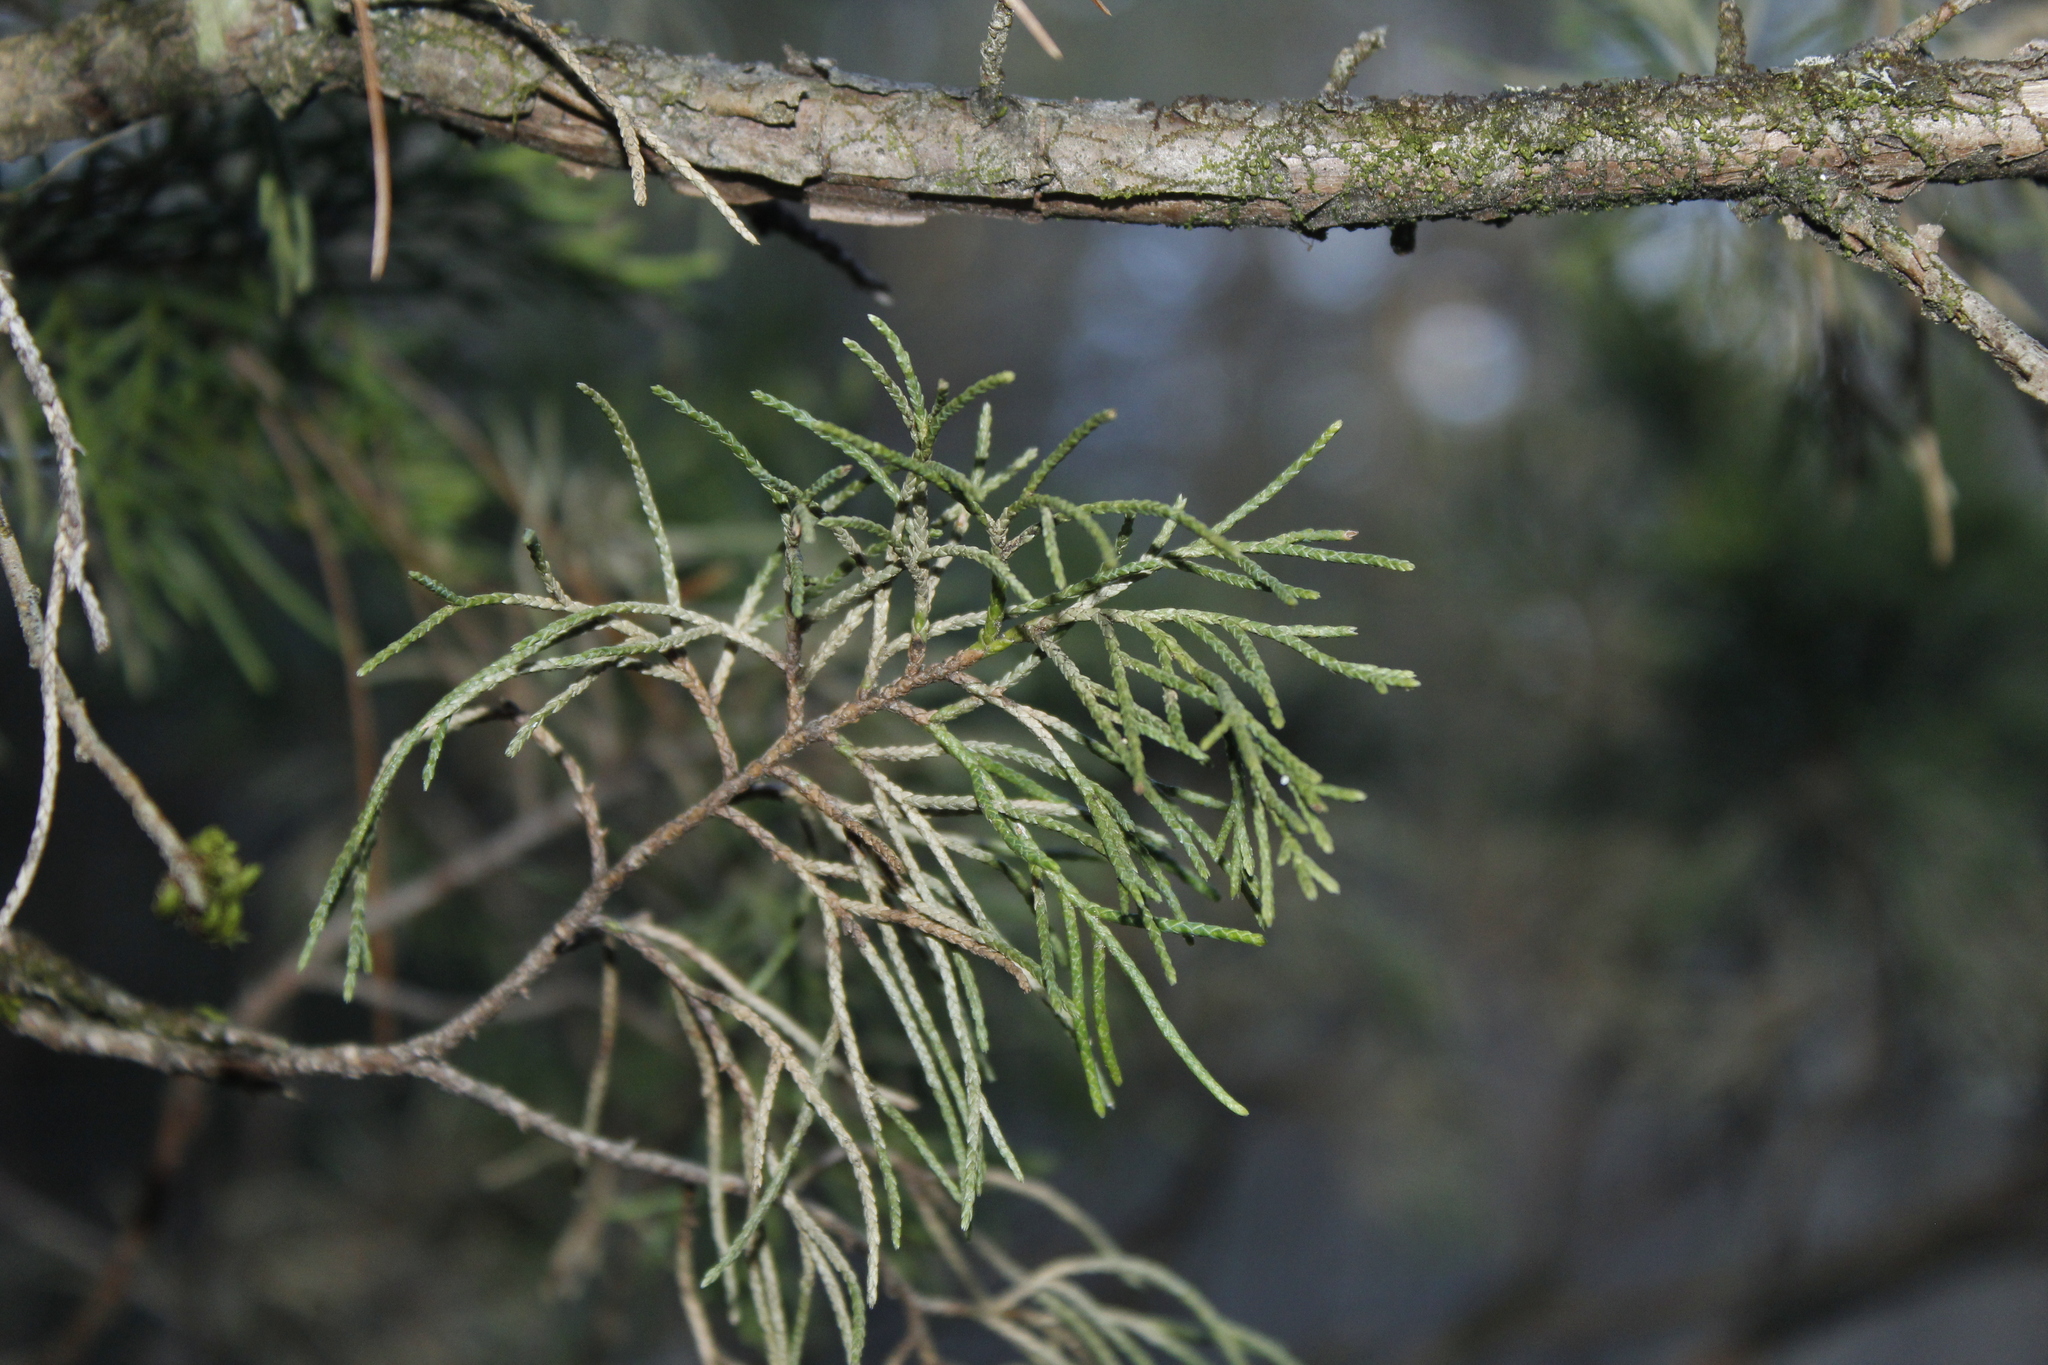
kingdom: Plantae
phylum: Tracheophyta
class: Pinopsida
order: Pinales
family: Cupressaceae
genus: Juniperus
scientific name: Juniperus virginiana
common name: Red juniper
